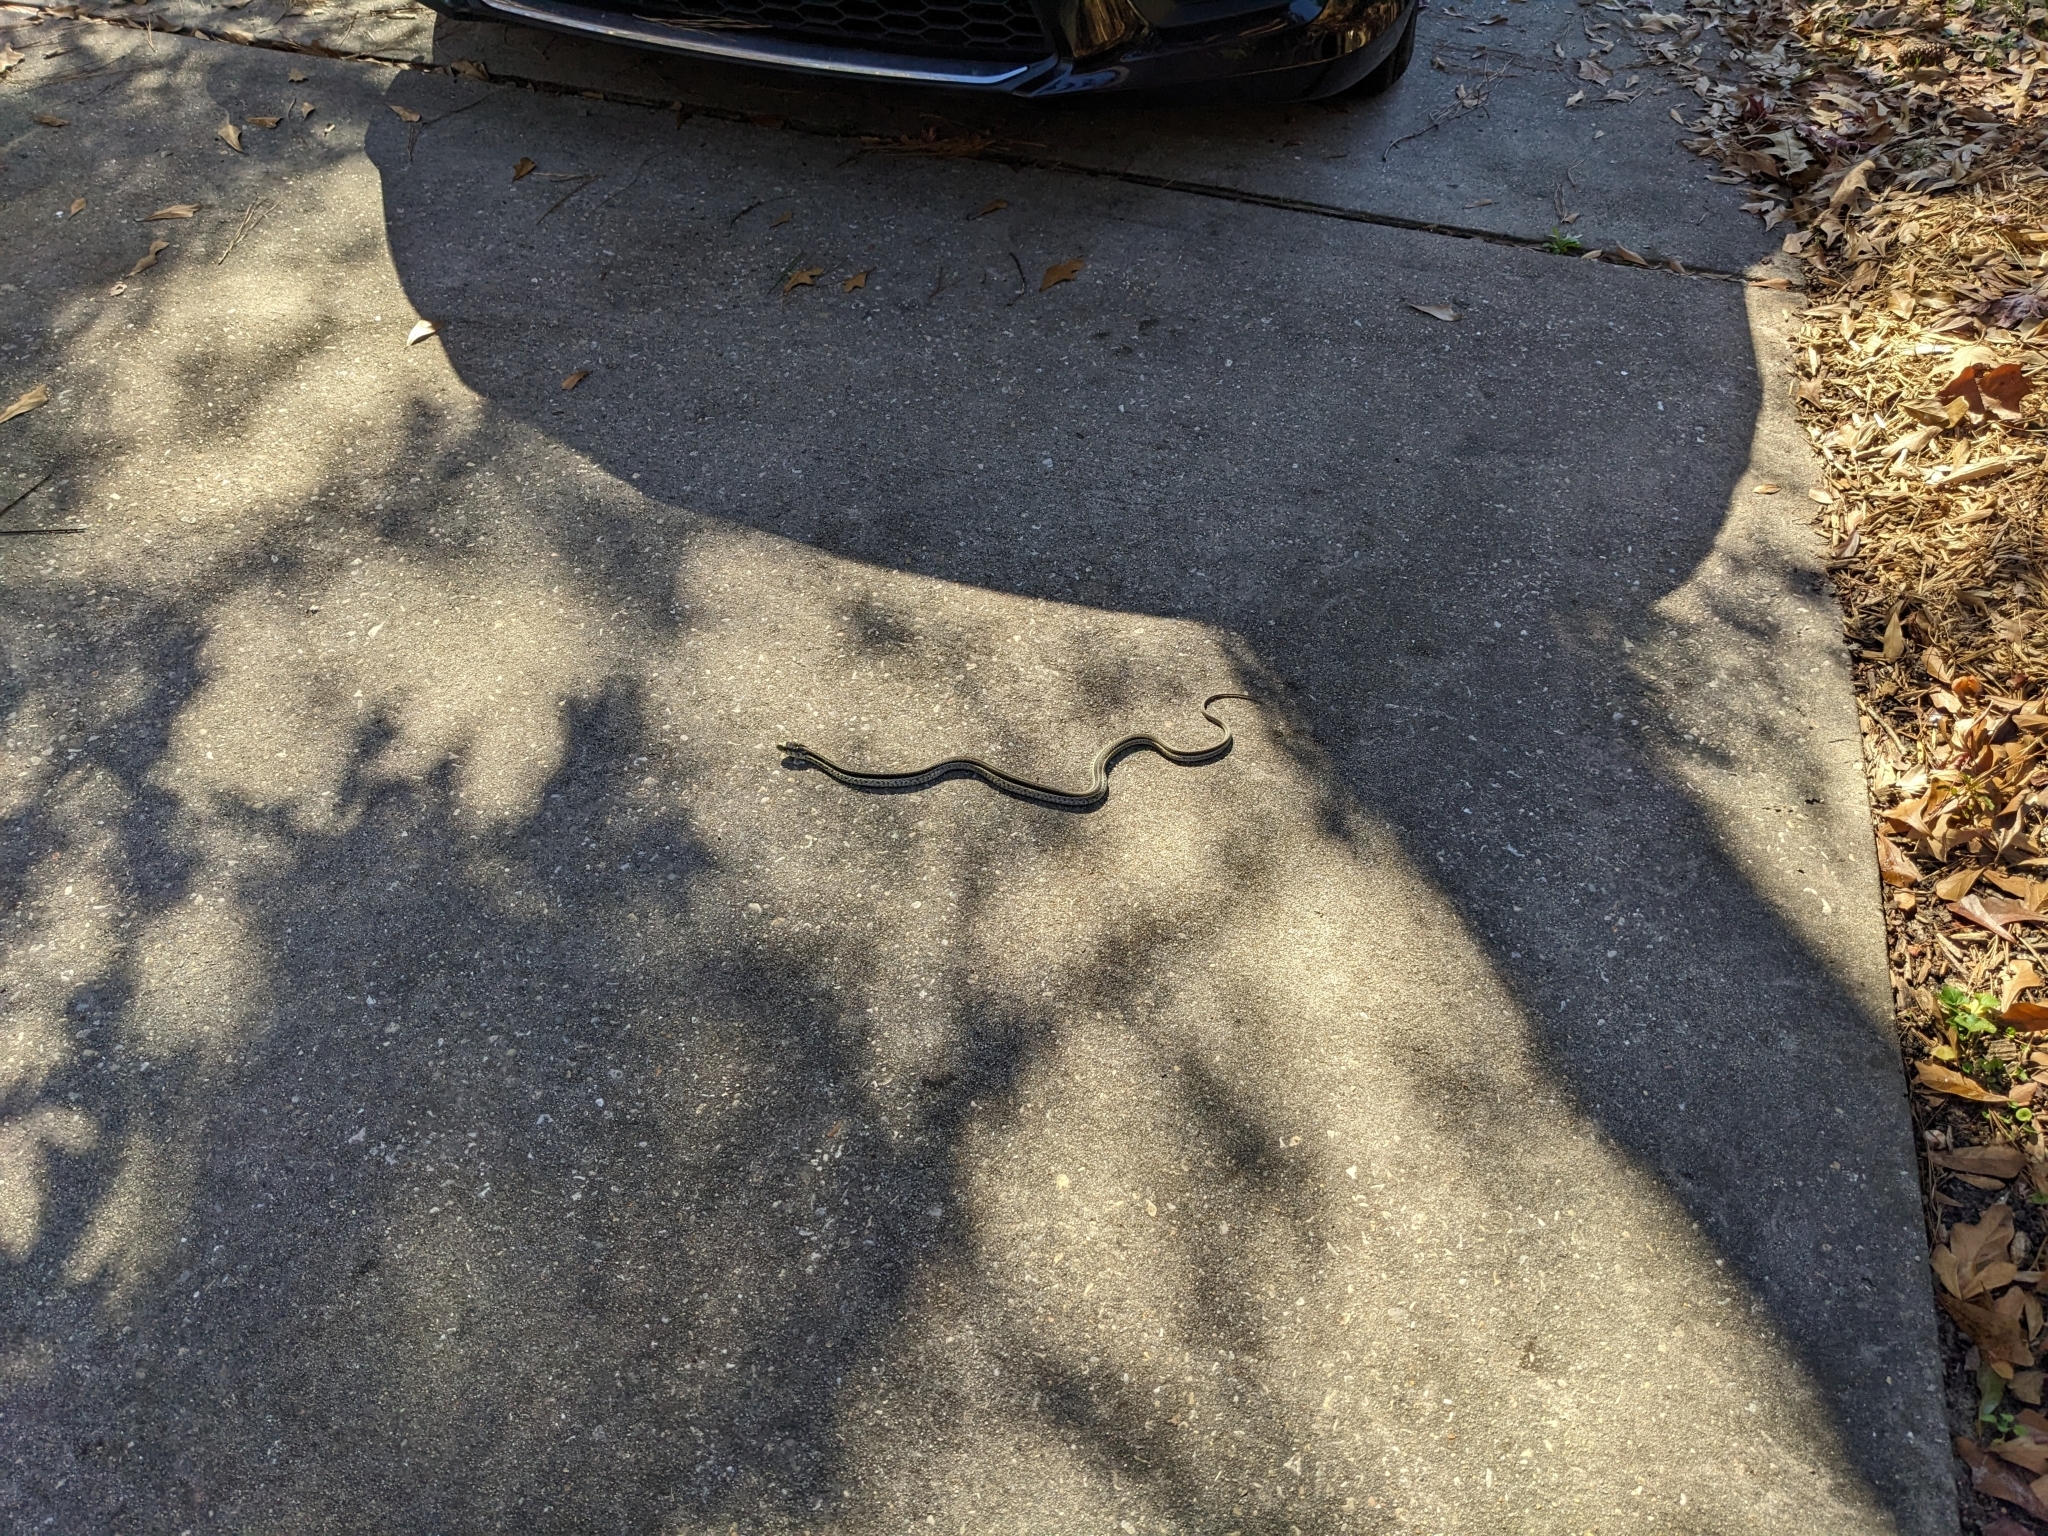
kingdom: Animalia
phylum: Chordata
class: Squamata
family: Colubridae
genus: Thamnophis
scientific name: Thamnophis sirtalis
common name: Common garter snake
